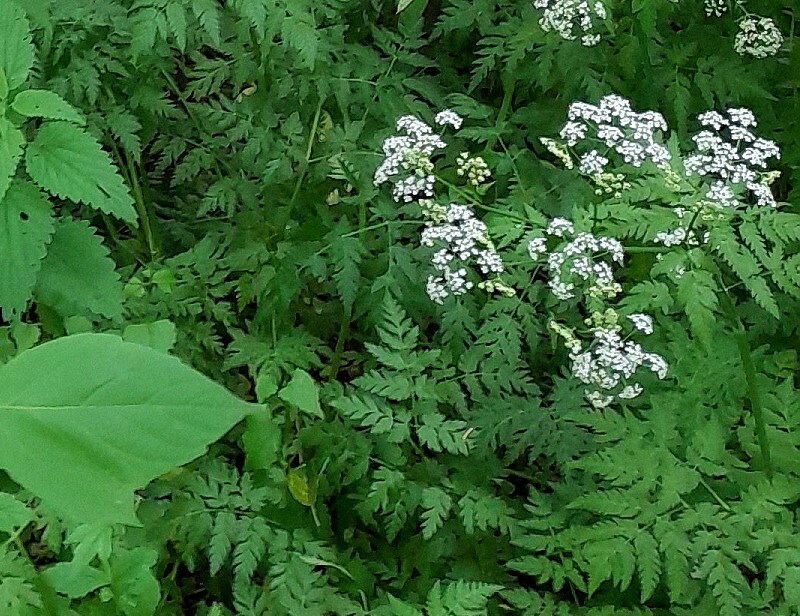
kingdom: Plantae
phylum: Tracheophyta
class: Magnoliopsida
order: Apiales
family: Apiaceae
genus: Anthriscus
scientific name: Anthriscus sylvestris
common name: Cow parsley
